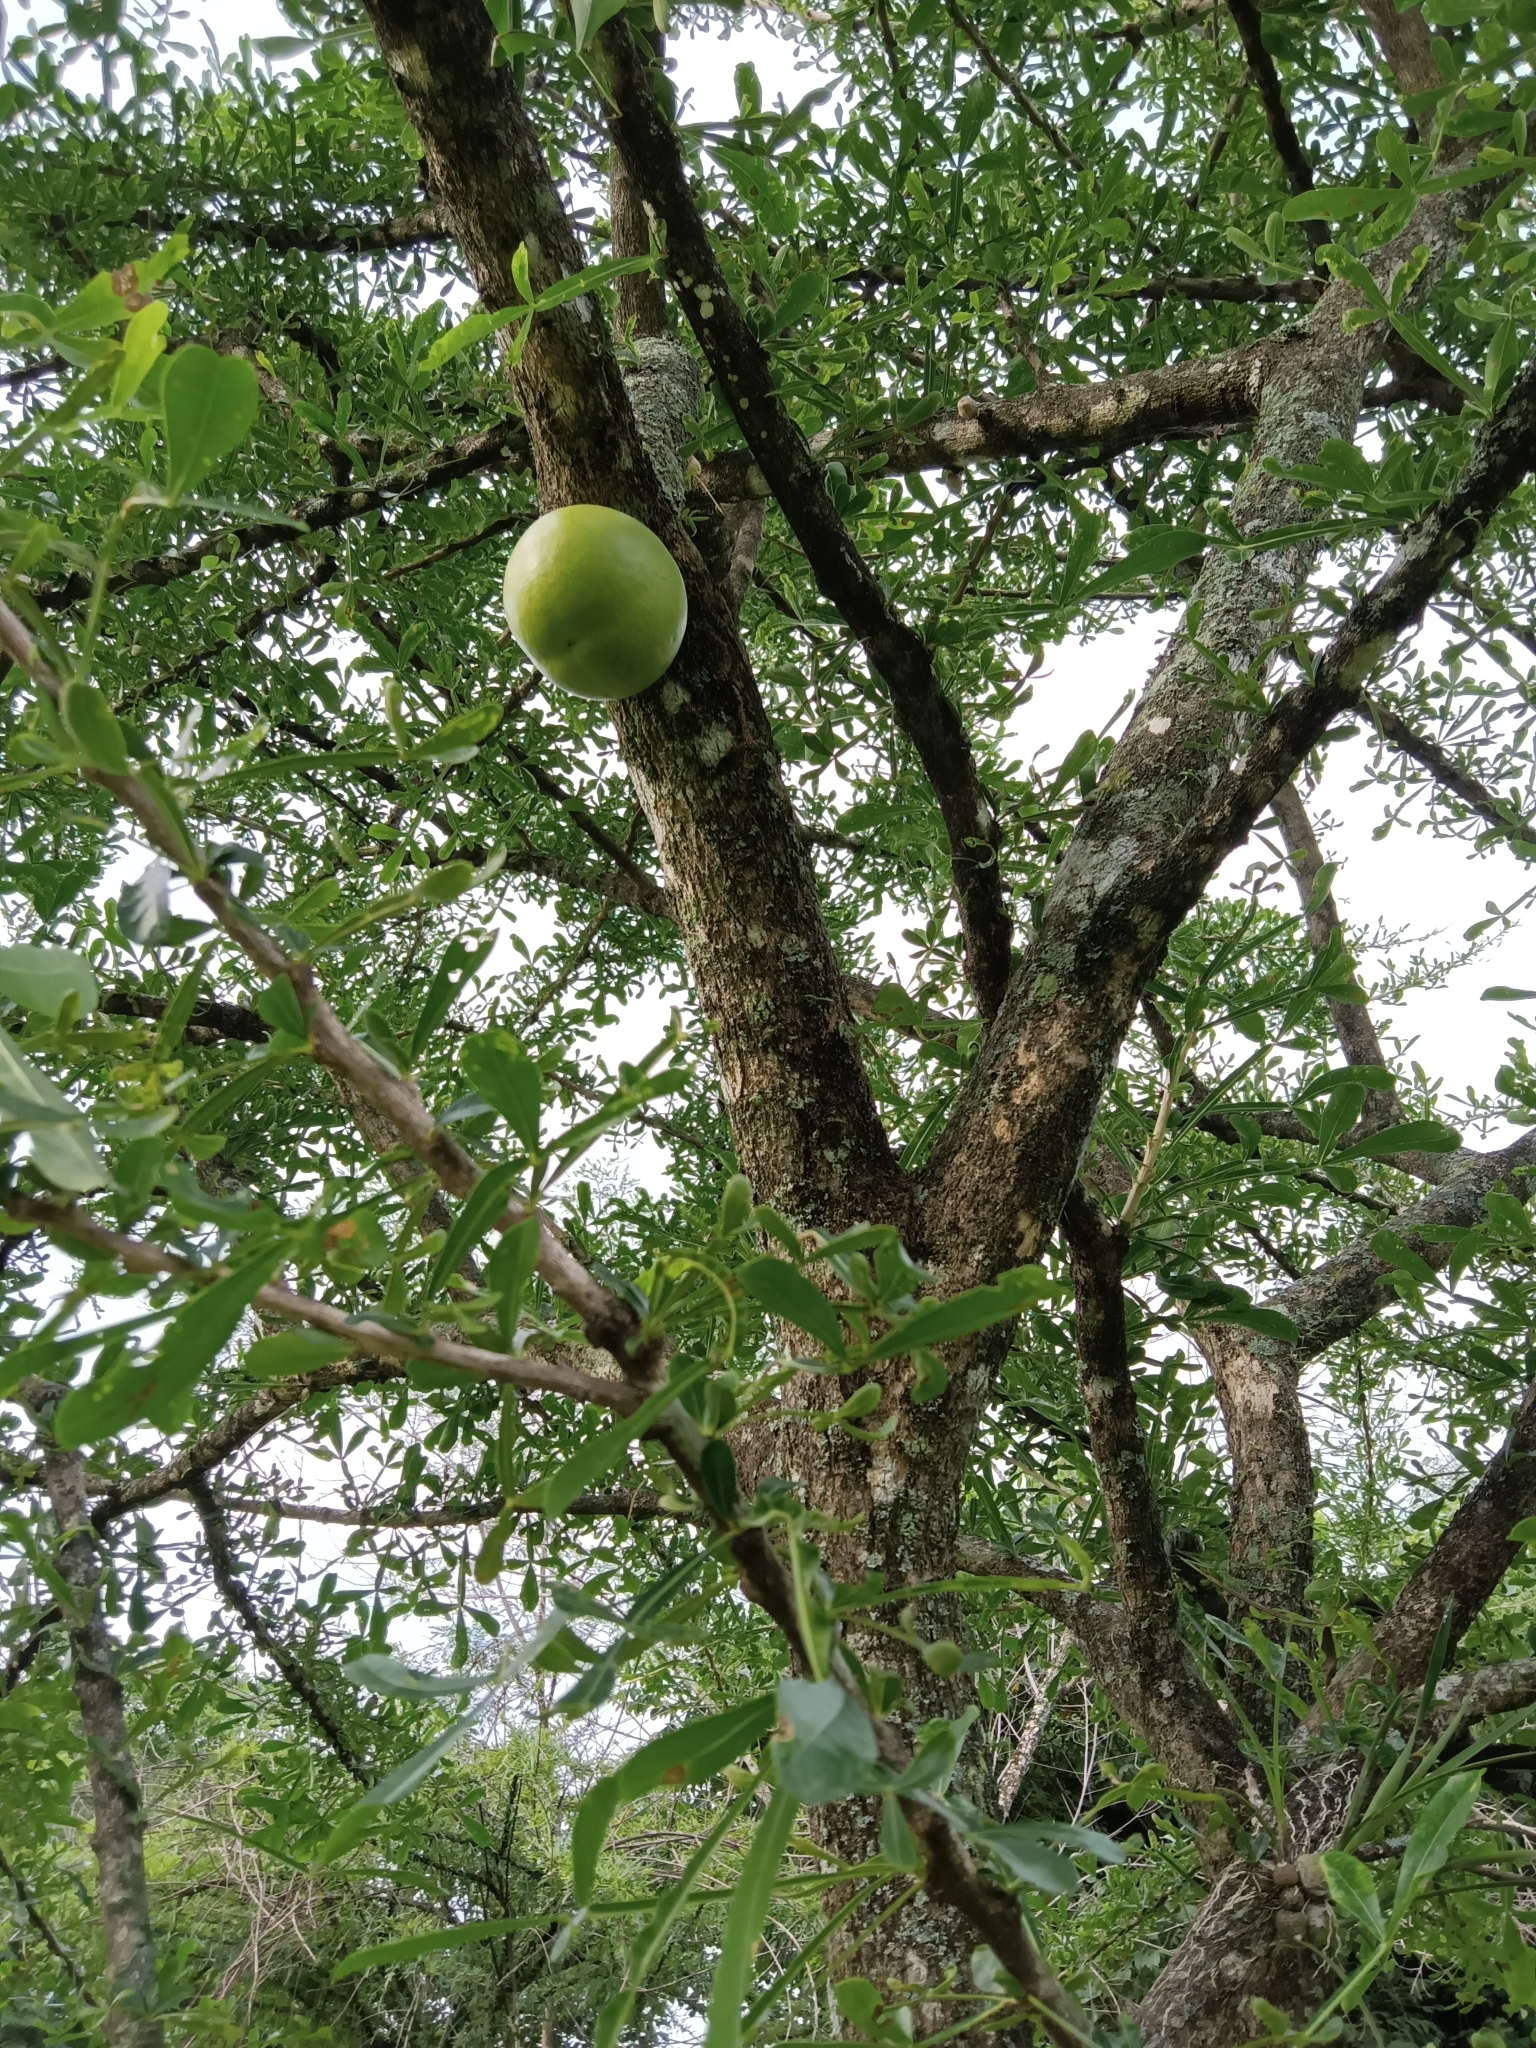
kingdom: Plantae
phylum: Tracheophyta
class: Magnoliopsida
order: Lamiales
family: Bignoniaceae
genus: Crescentia
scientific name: Crescentia alata
